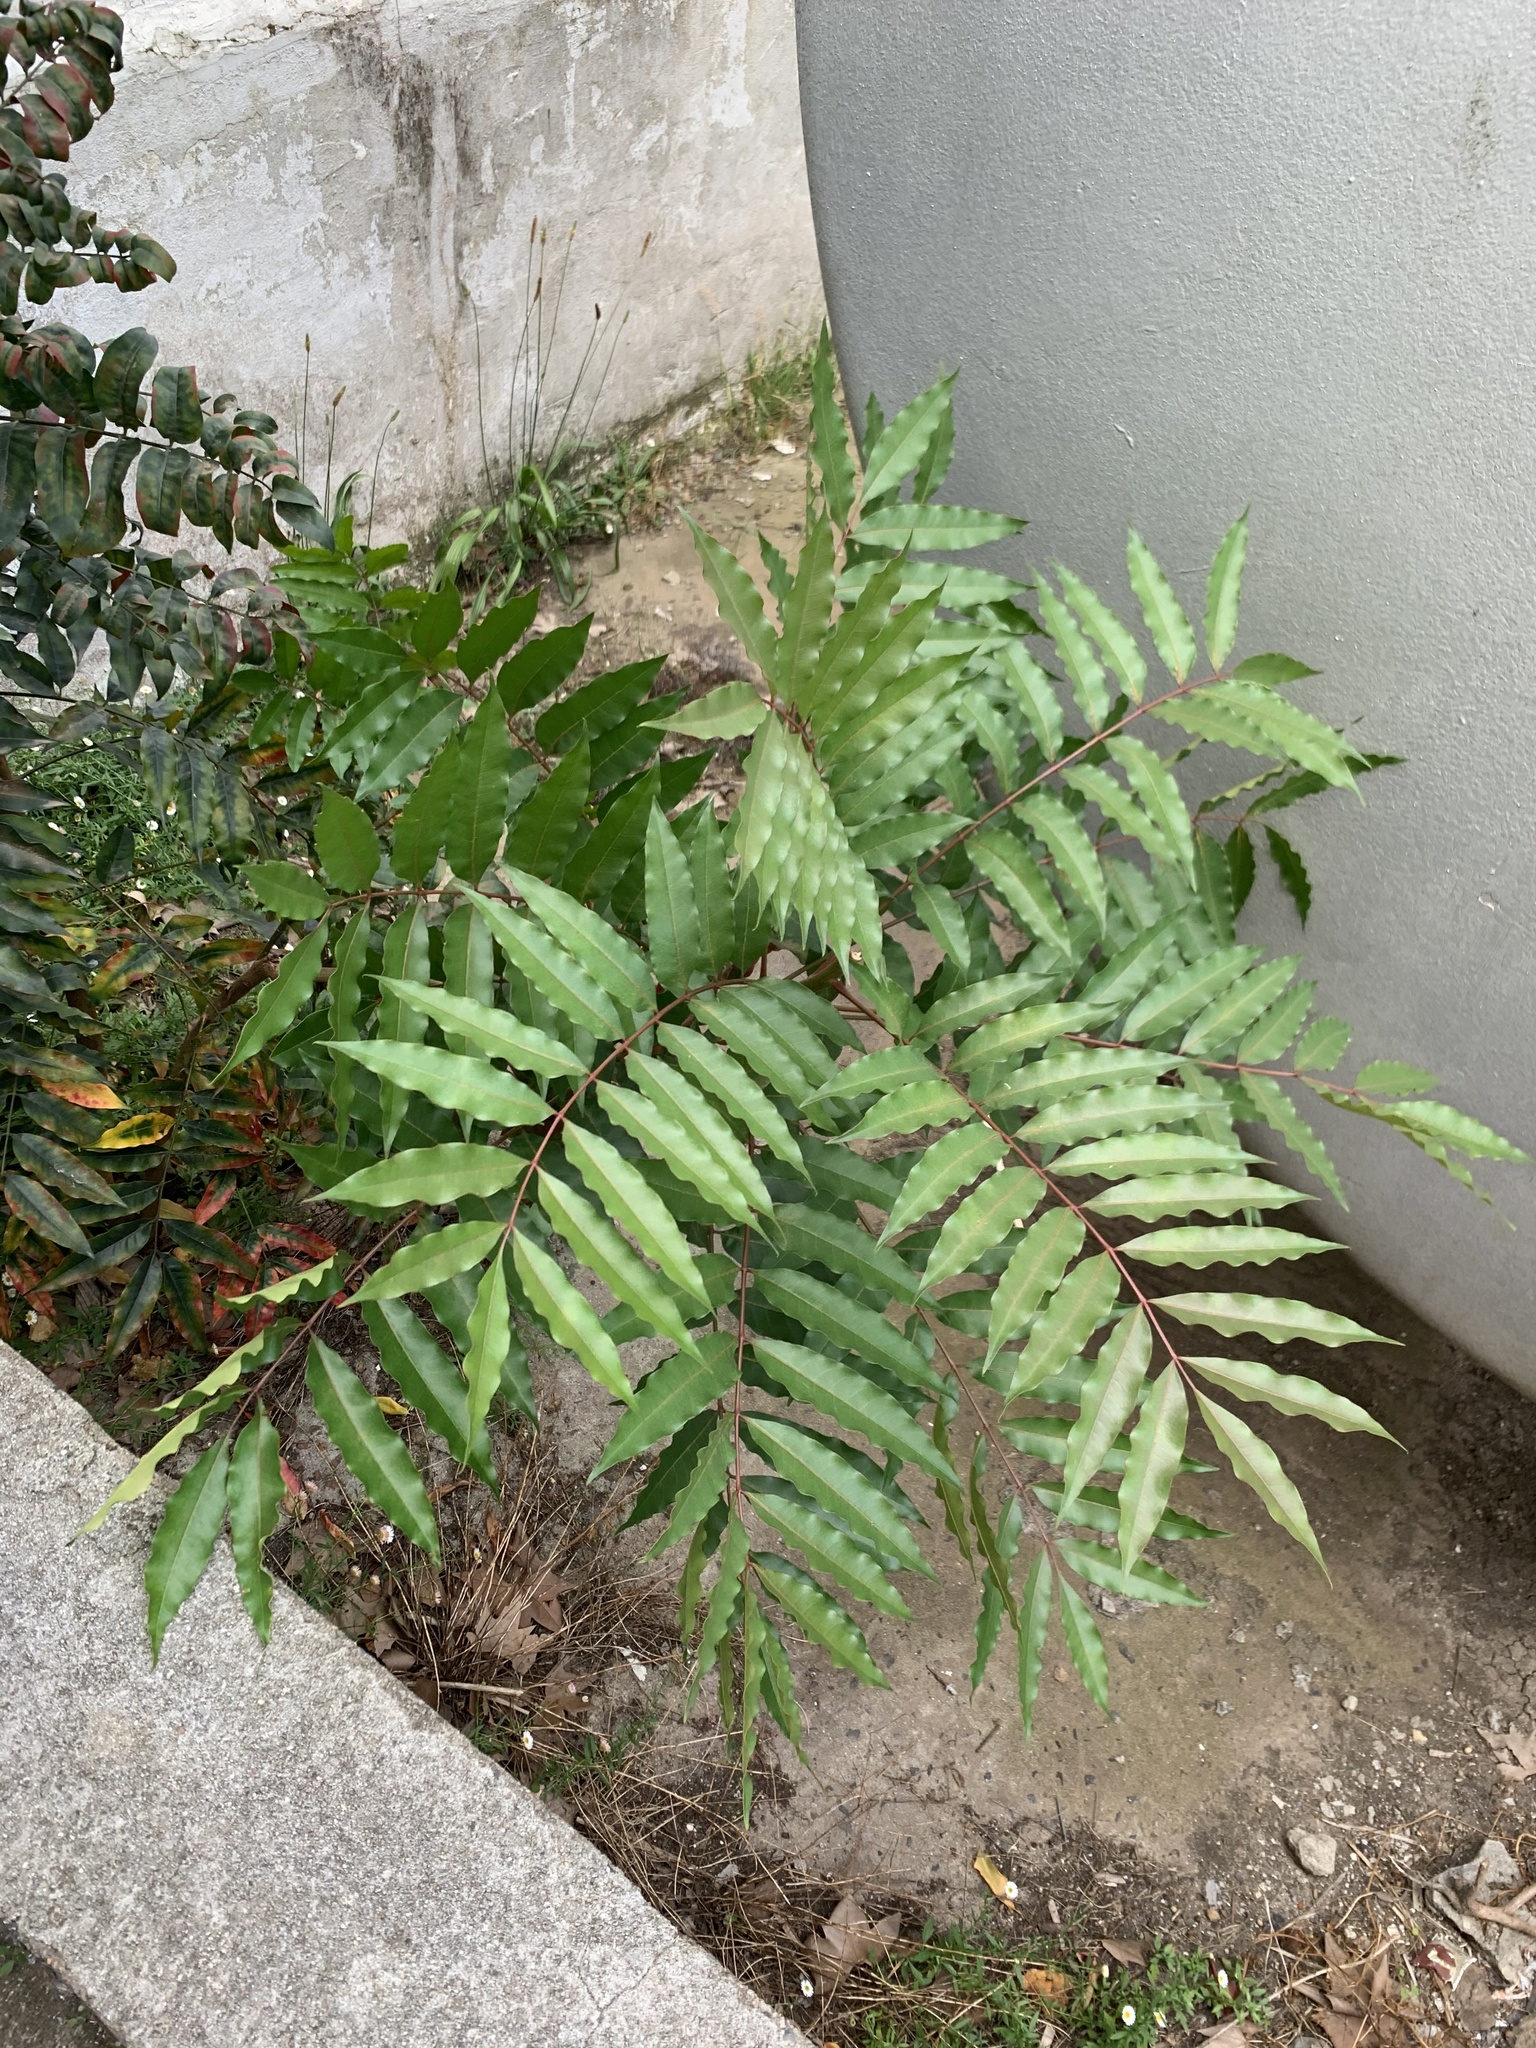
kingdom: Plantae
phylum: Tracheophyta
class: Magnoliopsida
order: Sapindales
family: Meliaceae
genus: Ekebergia
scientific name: Ekebergia capensis
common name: Cape-ash
